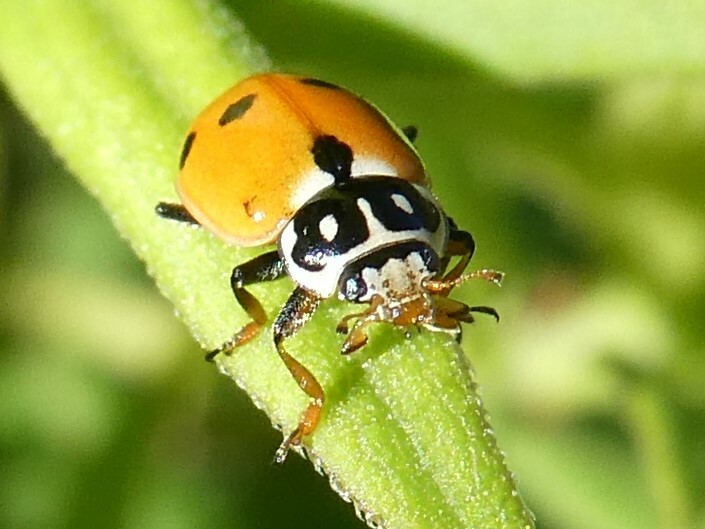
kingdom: Animalia
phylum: Arthropoda
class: Insecta
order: Coleoptera
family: Coccinellidae
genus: Hippodamia
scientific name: Hippodamia variegata
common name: Ladybird beetle
